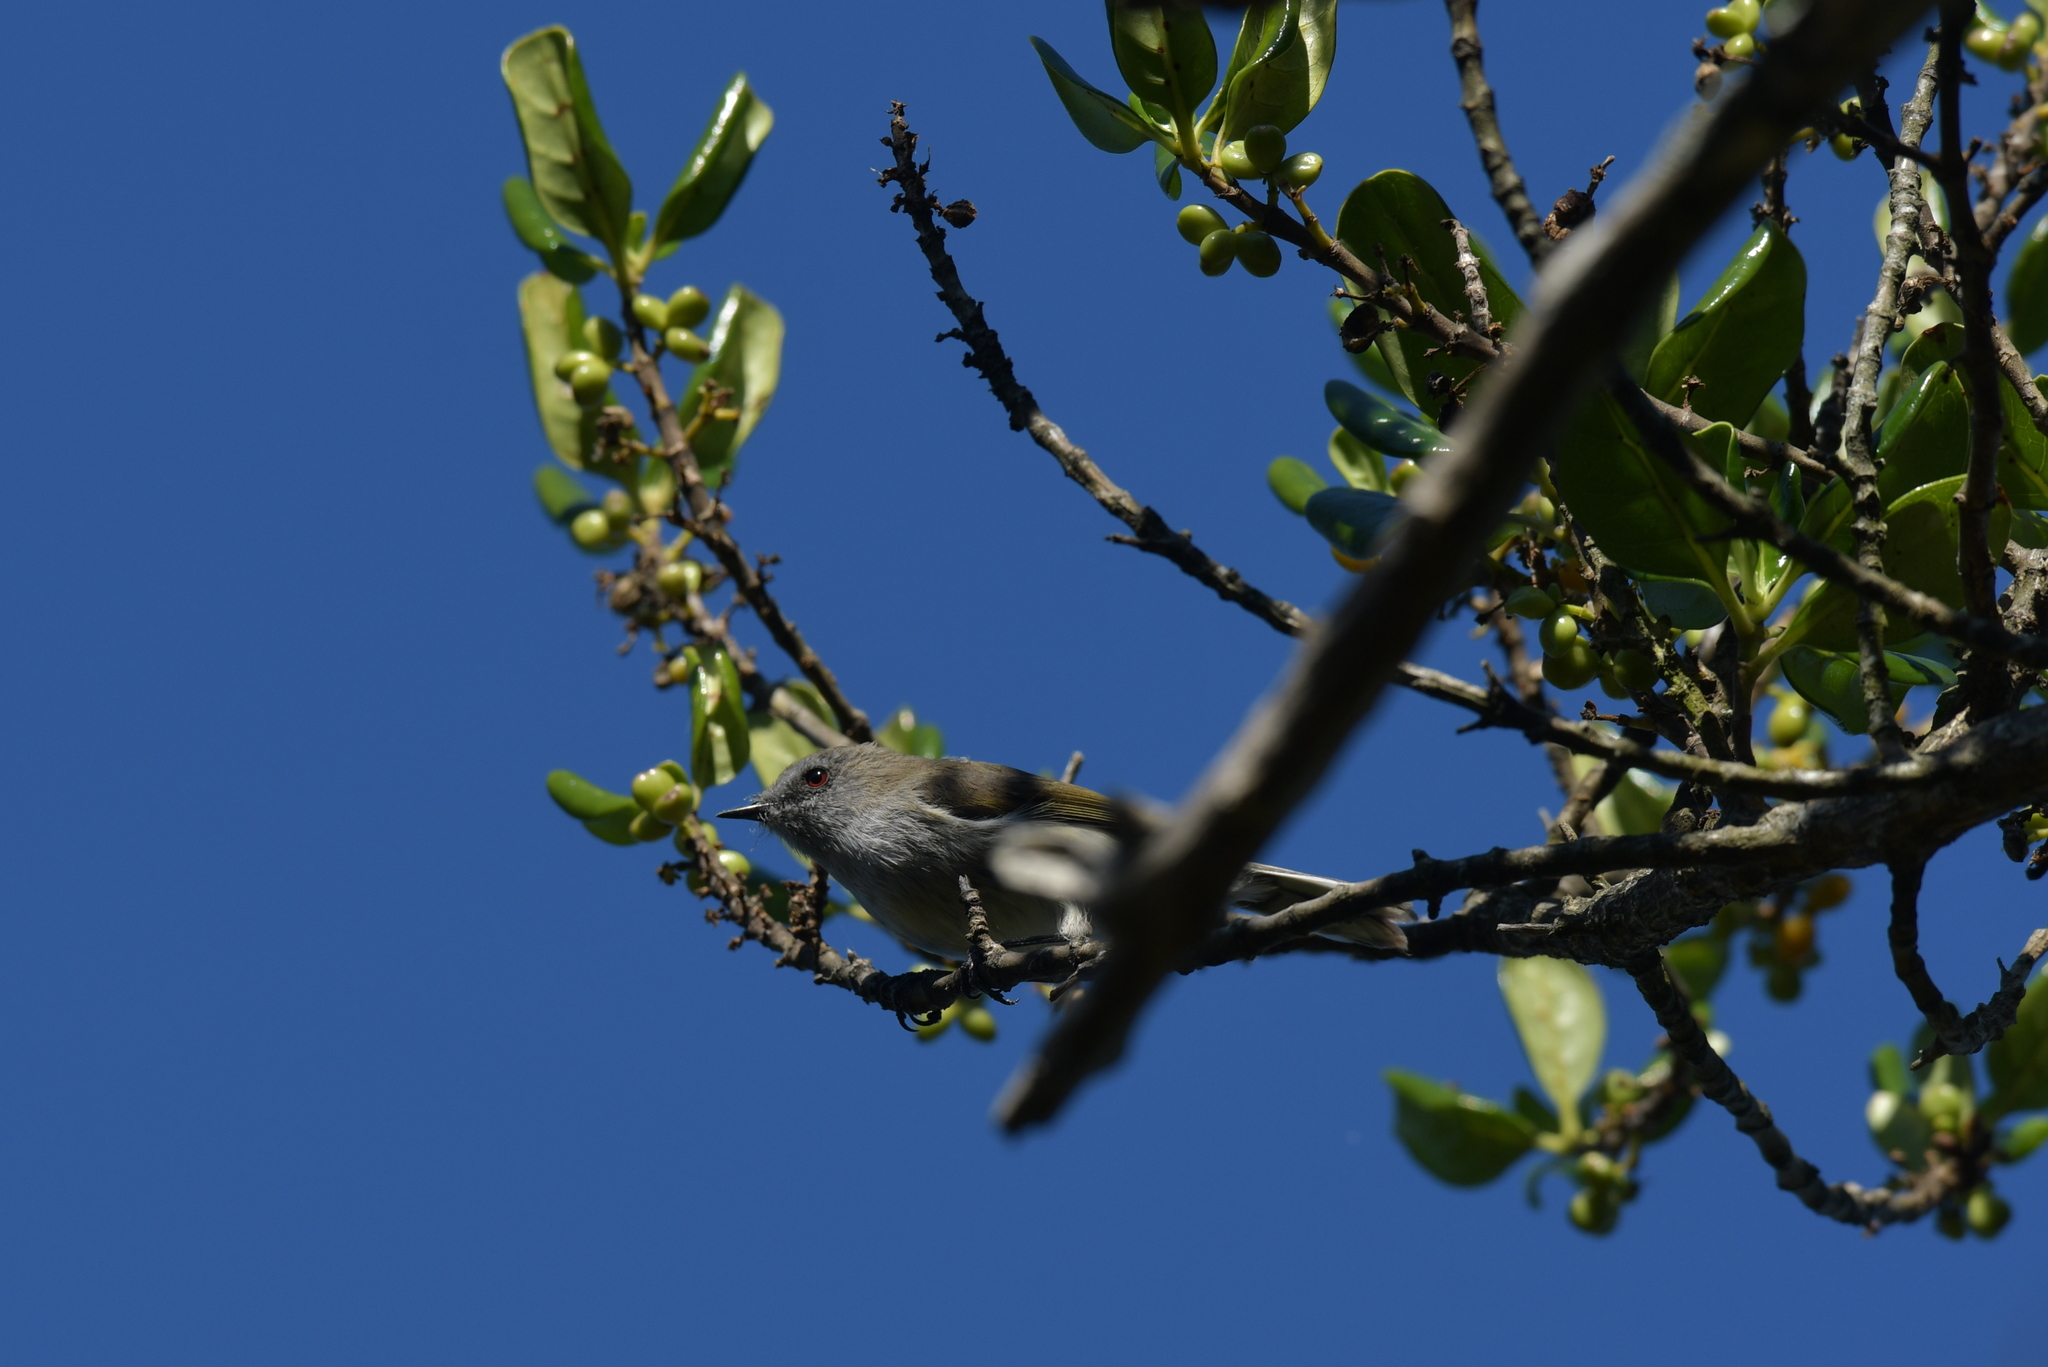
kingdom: Animalia
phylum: Chordata
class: Aves
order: Passeriformes
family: Acanthizidae
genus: Gerygone
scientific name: Gerygone igata
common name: Grey gerygone
